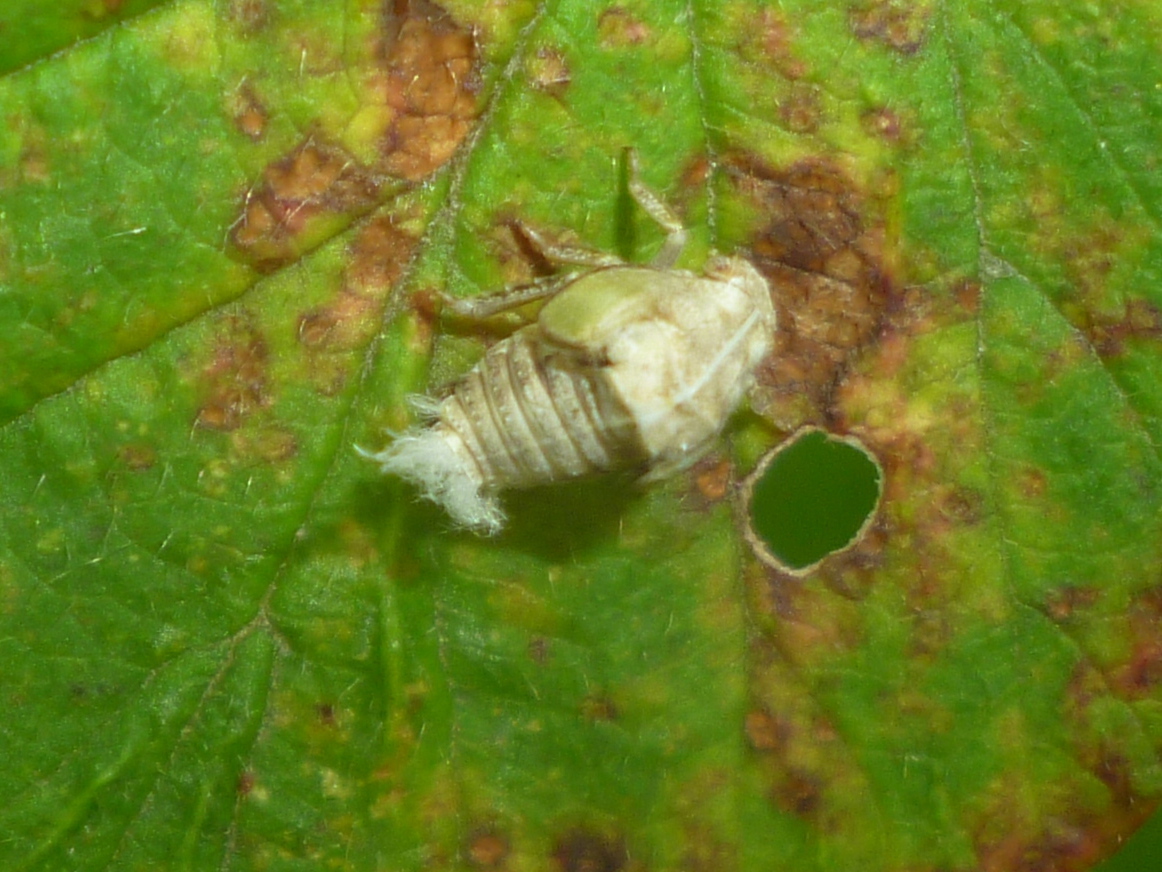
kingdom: Animalia
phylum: Arthropoda
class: Insecta
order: Hemiptera
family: Acanaloniidae
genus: Acanalonia
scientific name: Acanalonia conica
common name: Green cone-headed planthopper
